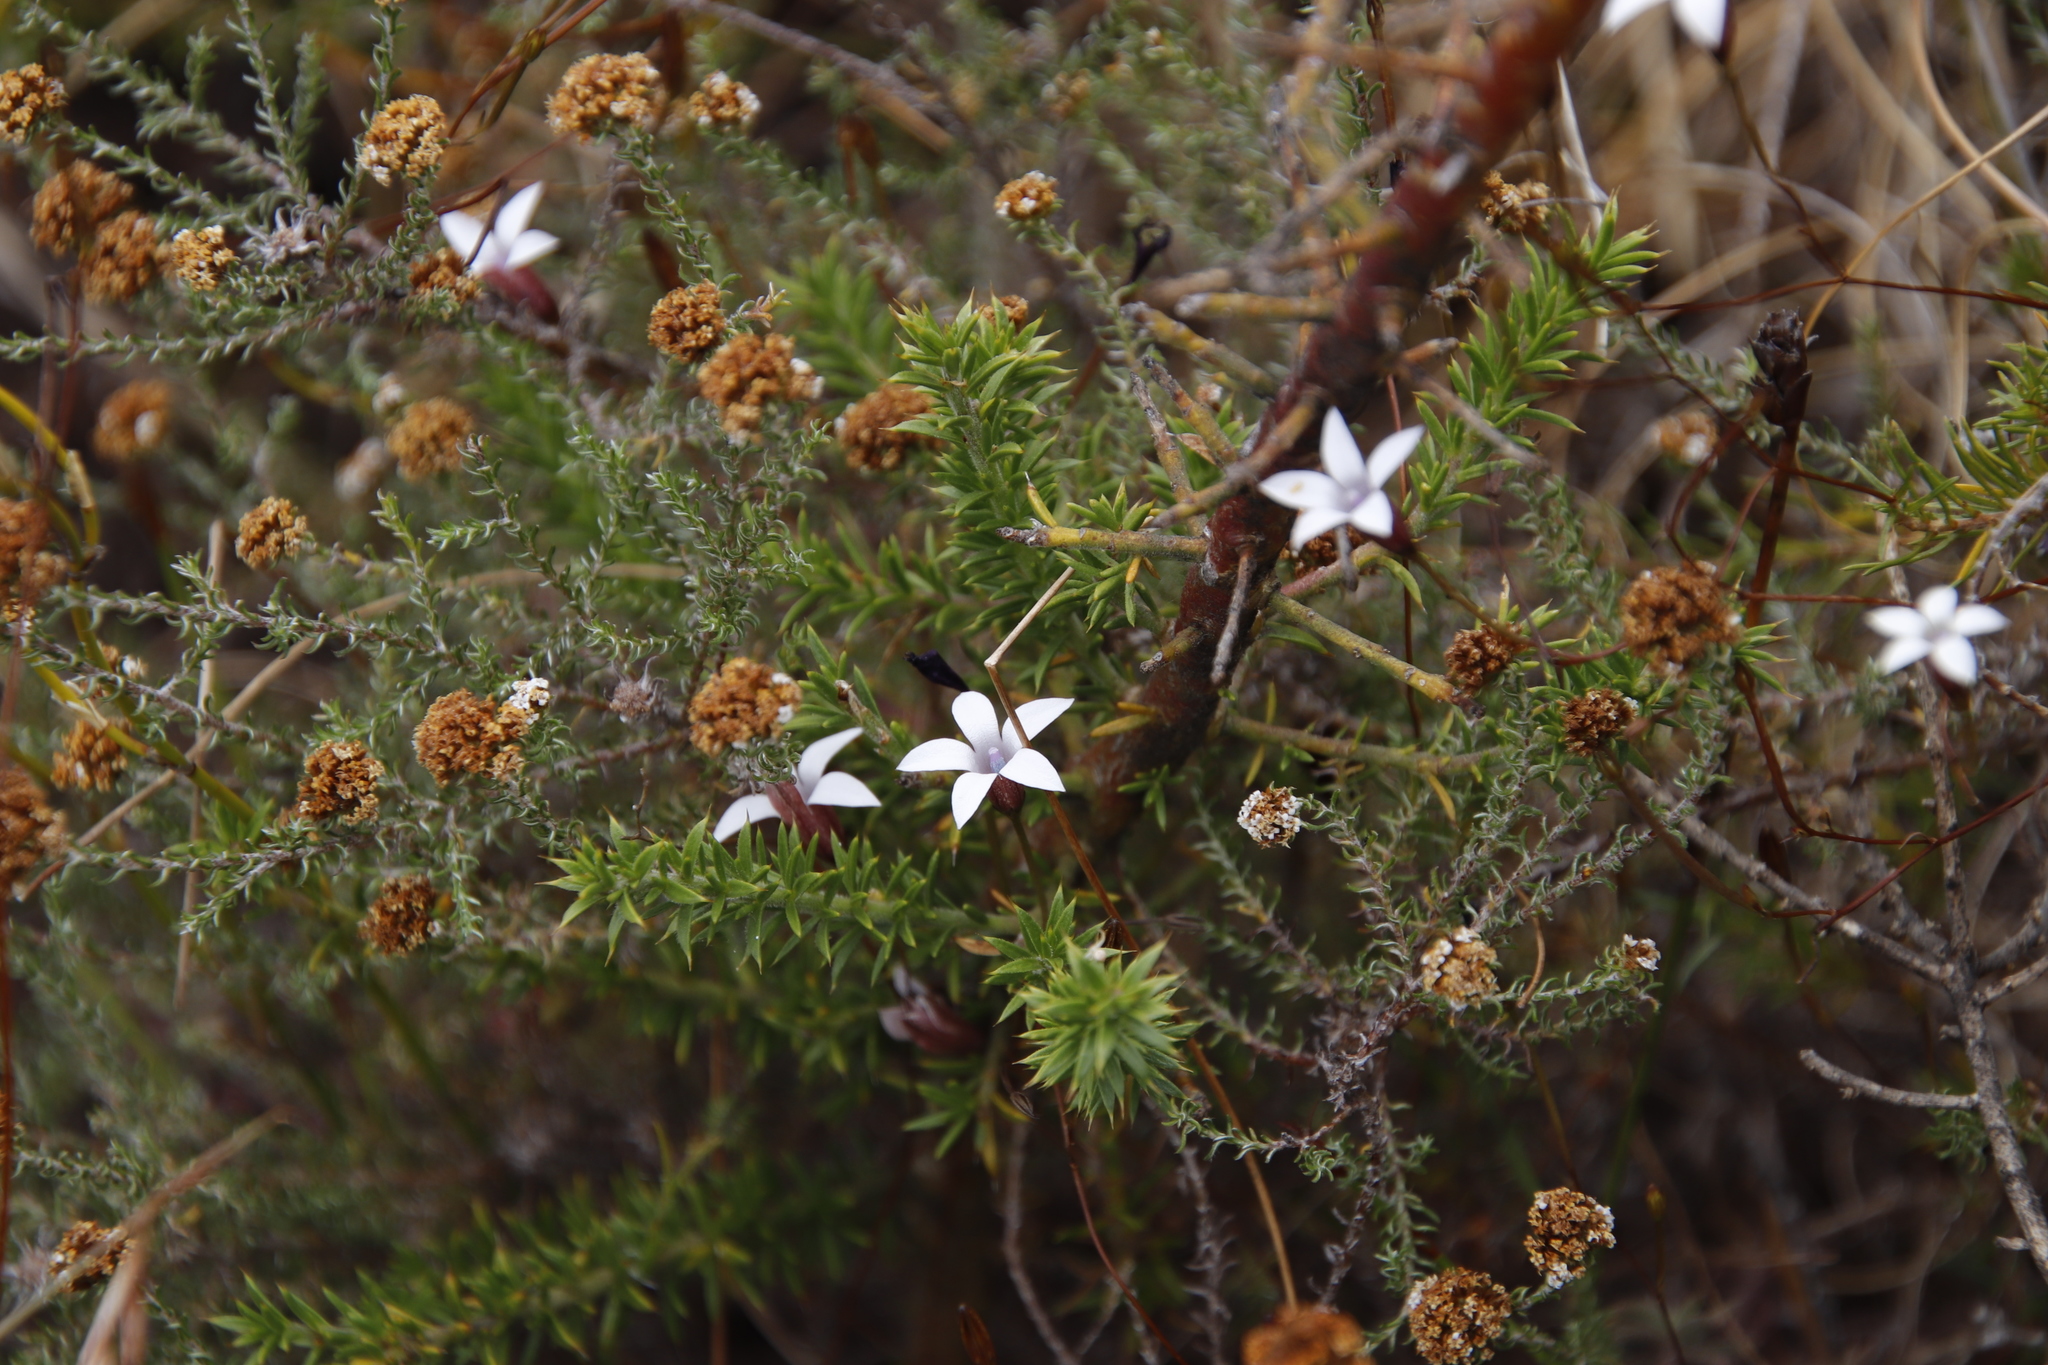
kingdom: Plantae
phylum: Tracheophyta
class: Magnoliopsida
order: Asterales
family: Campanulaceae
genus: Prismatocarpus
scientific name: Prismatocarpus fruticosus
